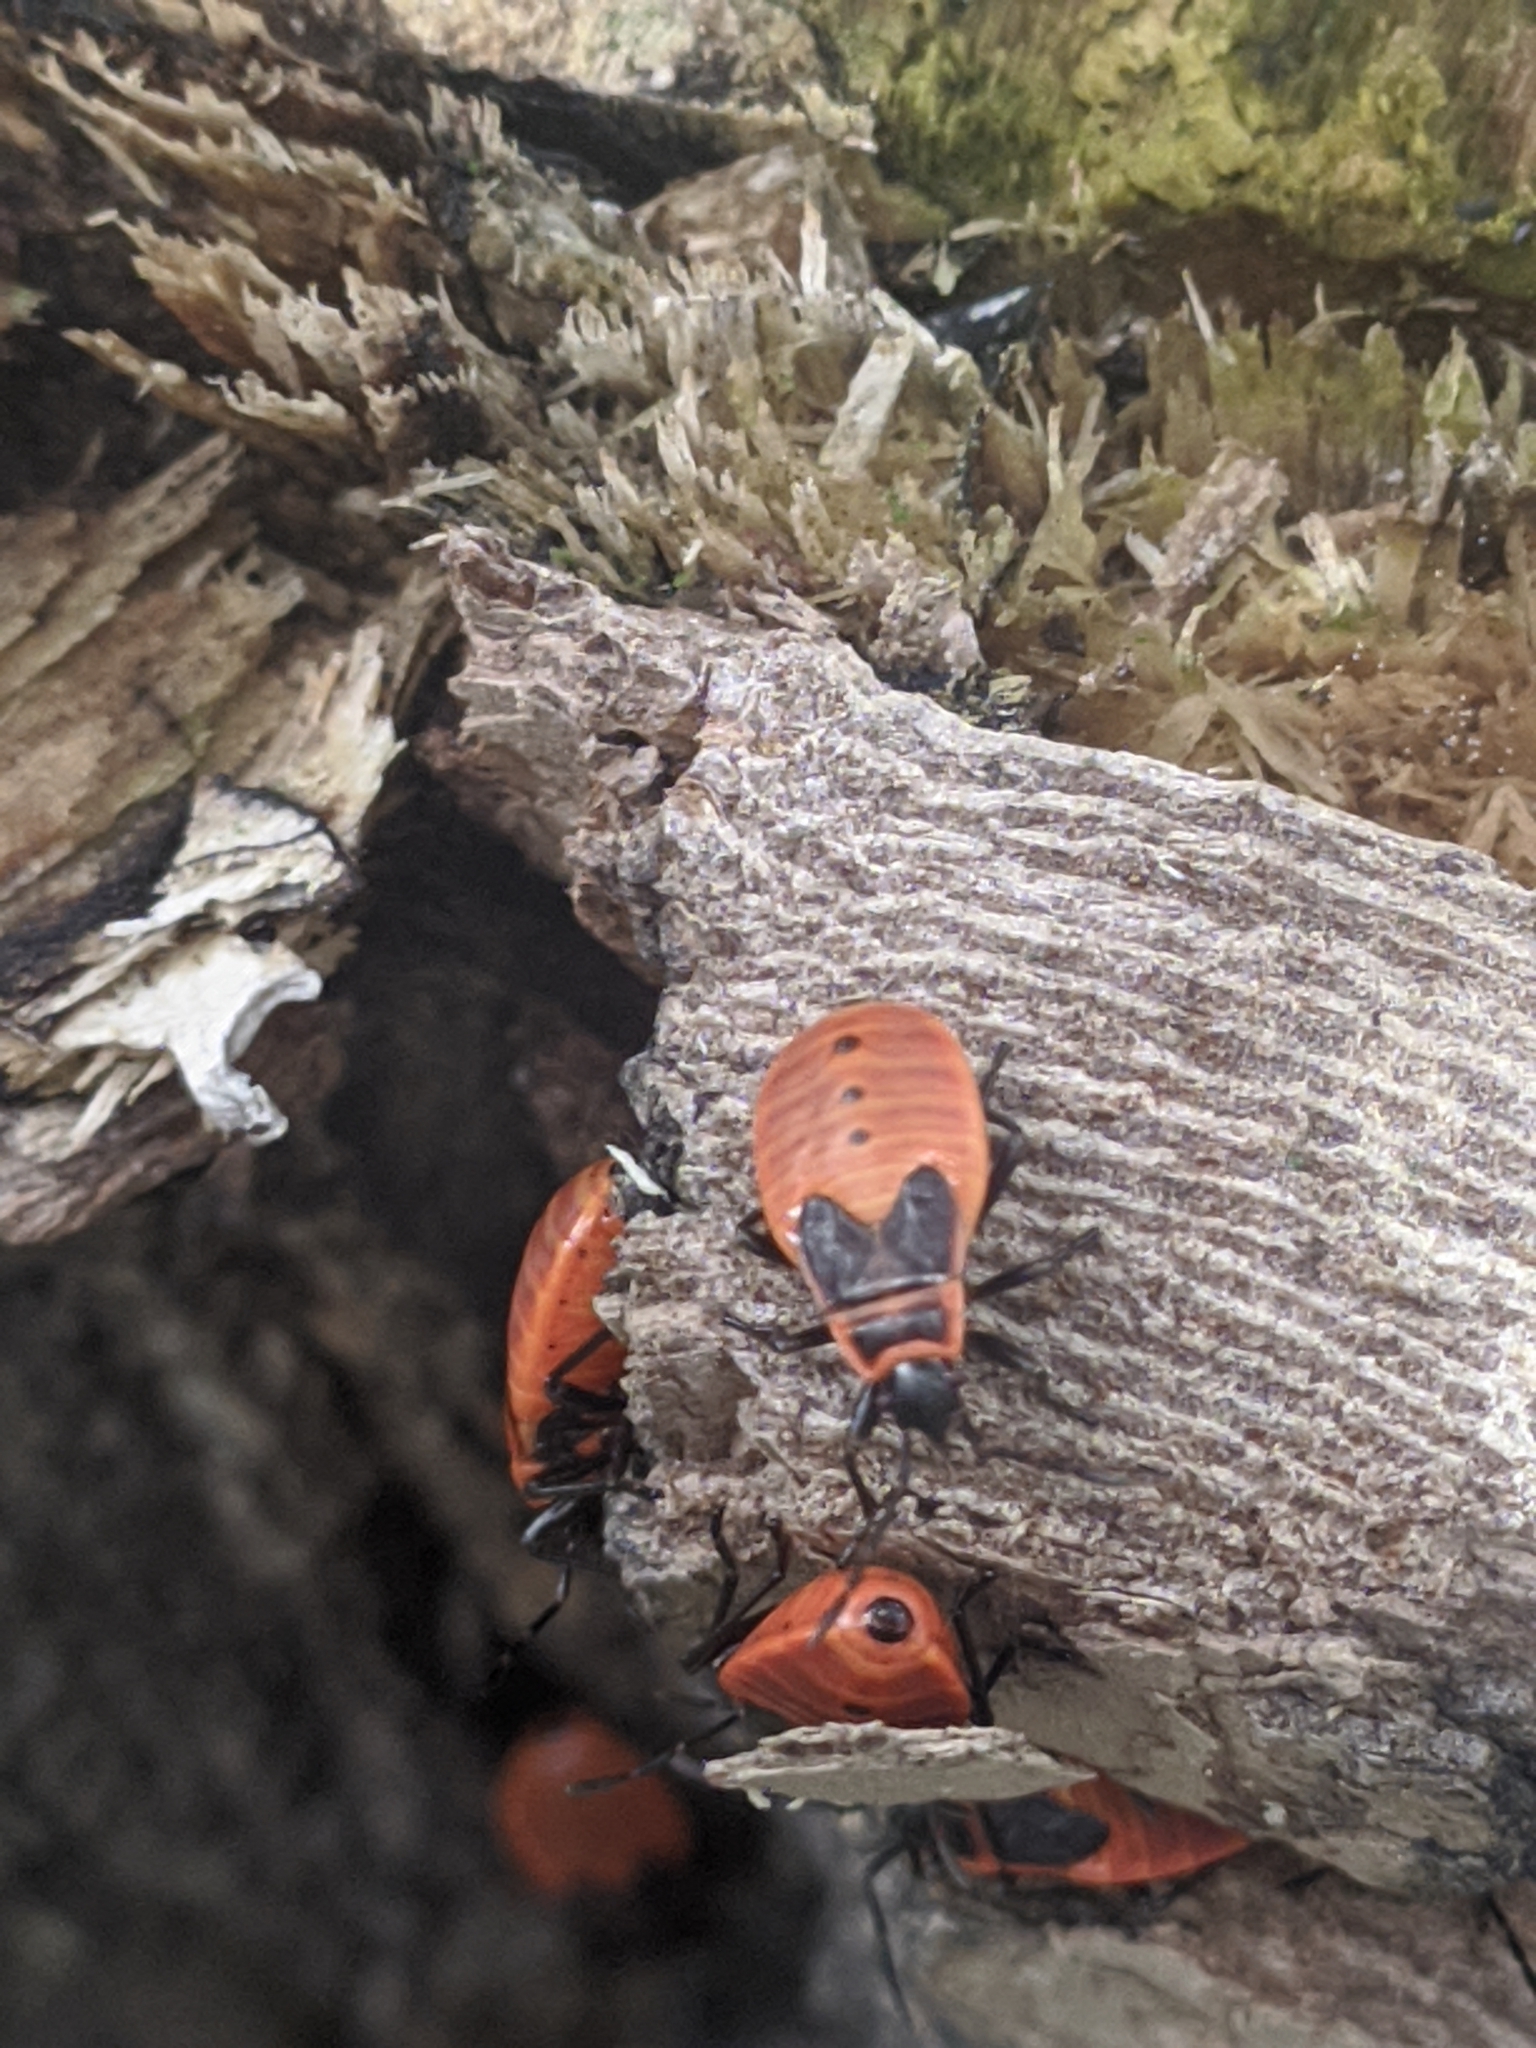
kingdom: Animalia
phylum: Arthropoda
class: Insecta
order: Hemiptera
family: Pyrrhocoridae
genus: Pyrrhocoris
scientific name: Pyrrhocoris apterus
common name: Firebug
